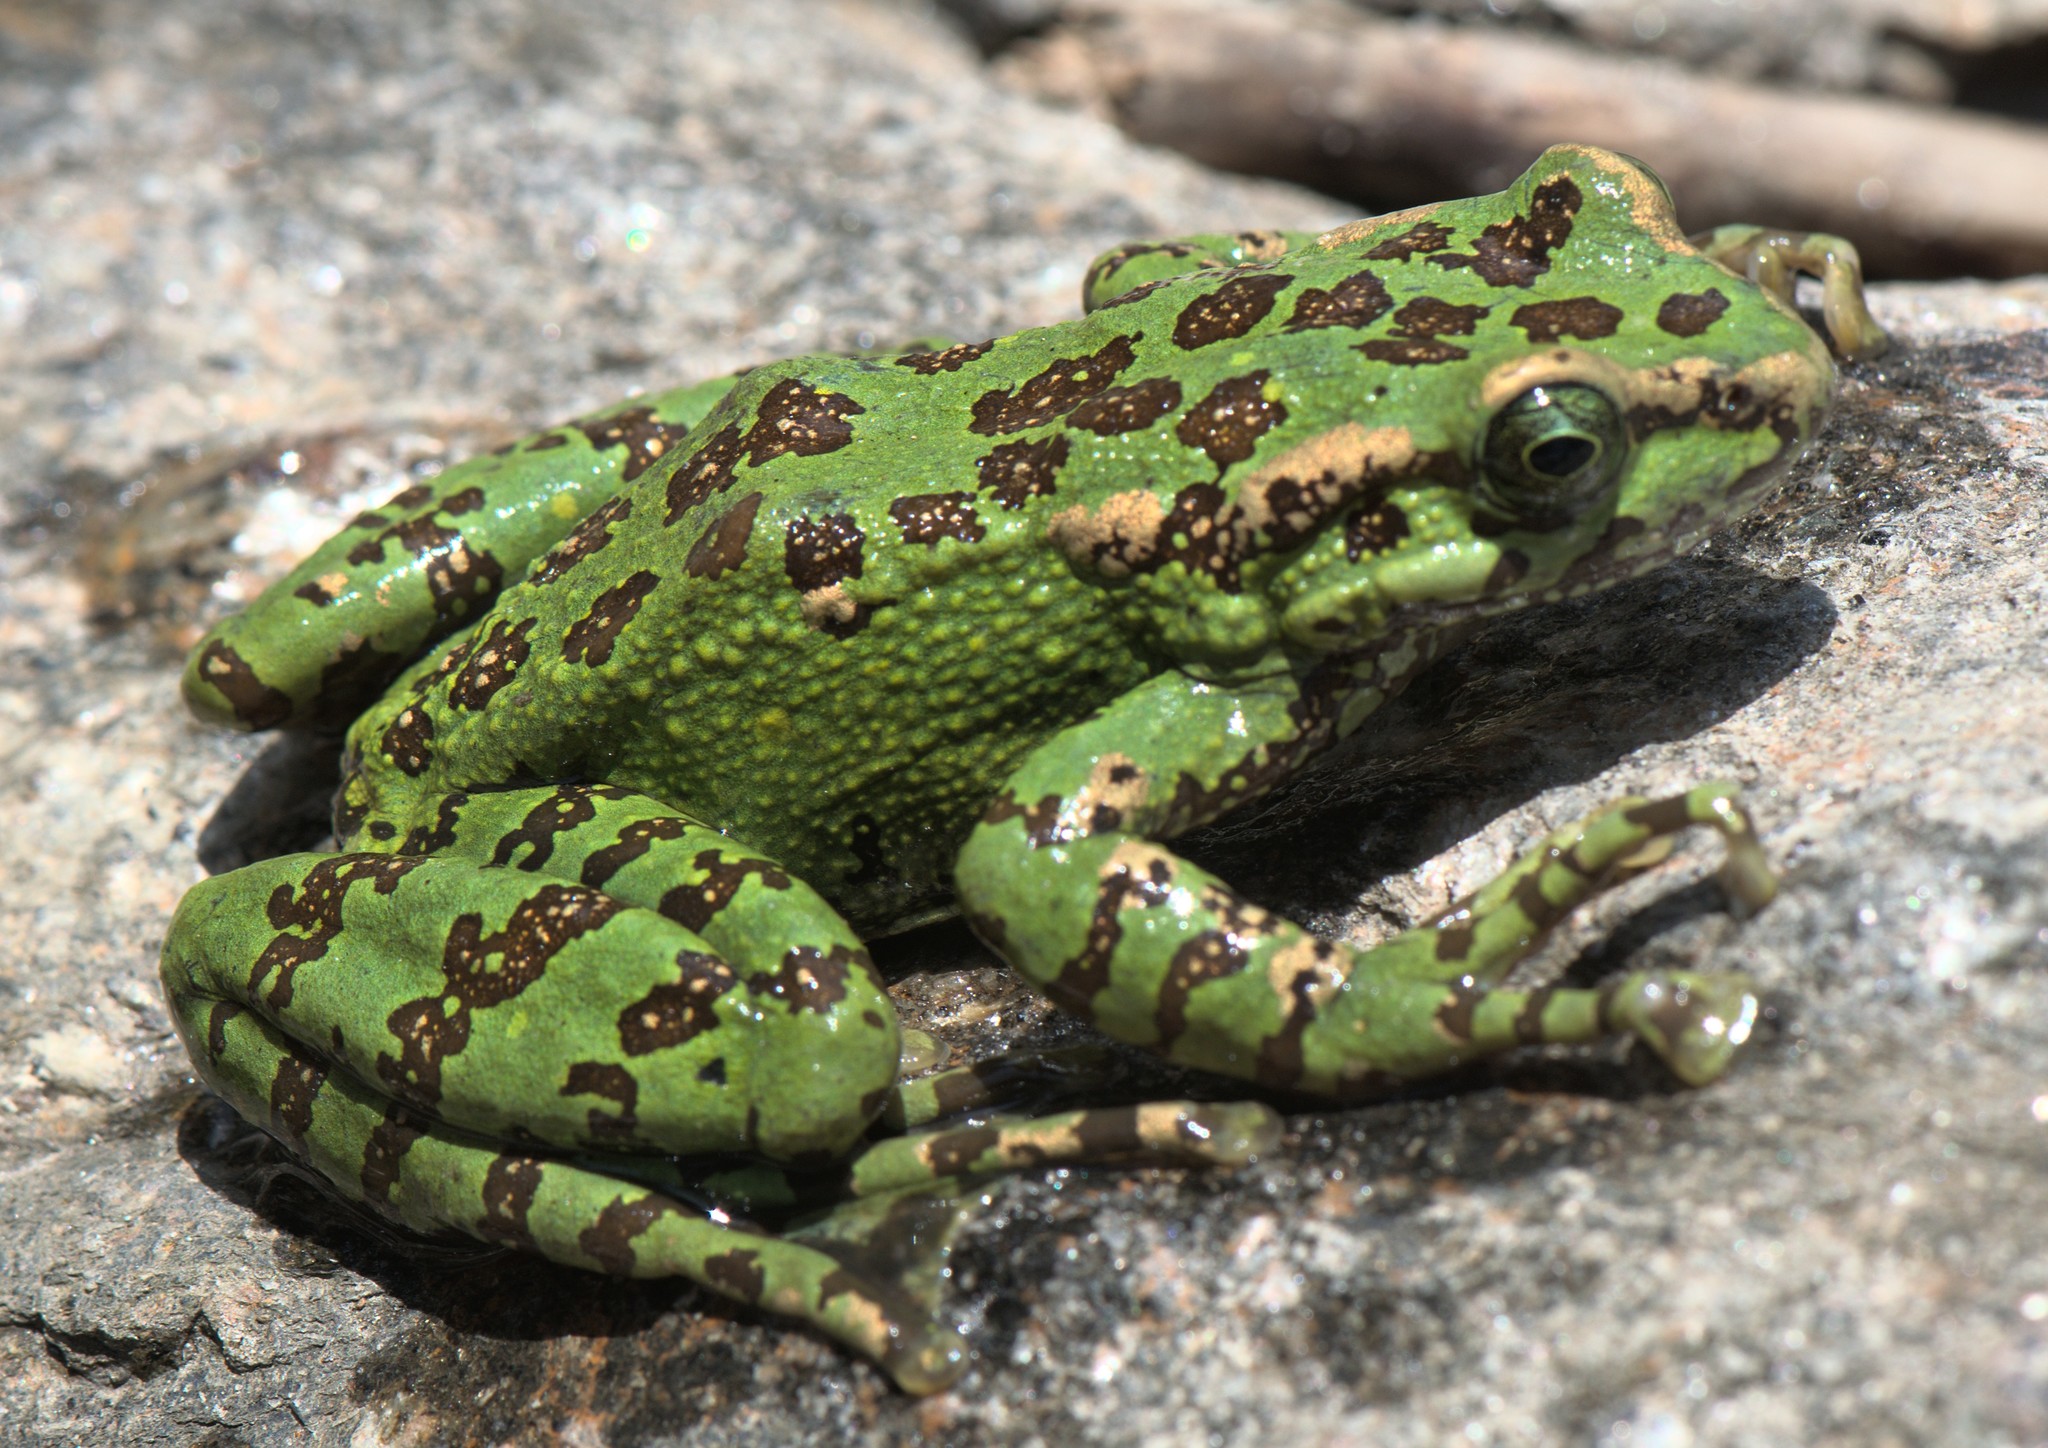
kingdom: Animalia
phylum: Chordata
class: Amphibia
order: Anura
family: Ranidae
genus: Amolops
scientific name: Amolops formosus
